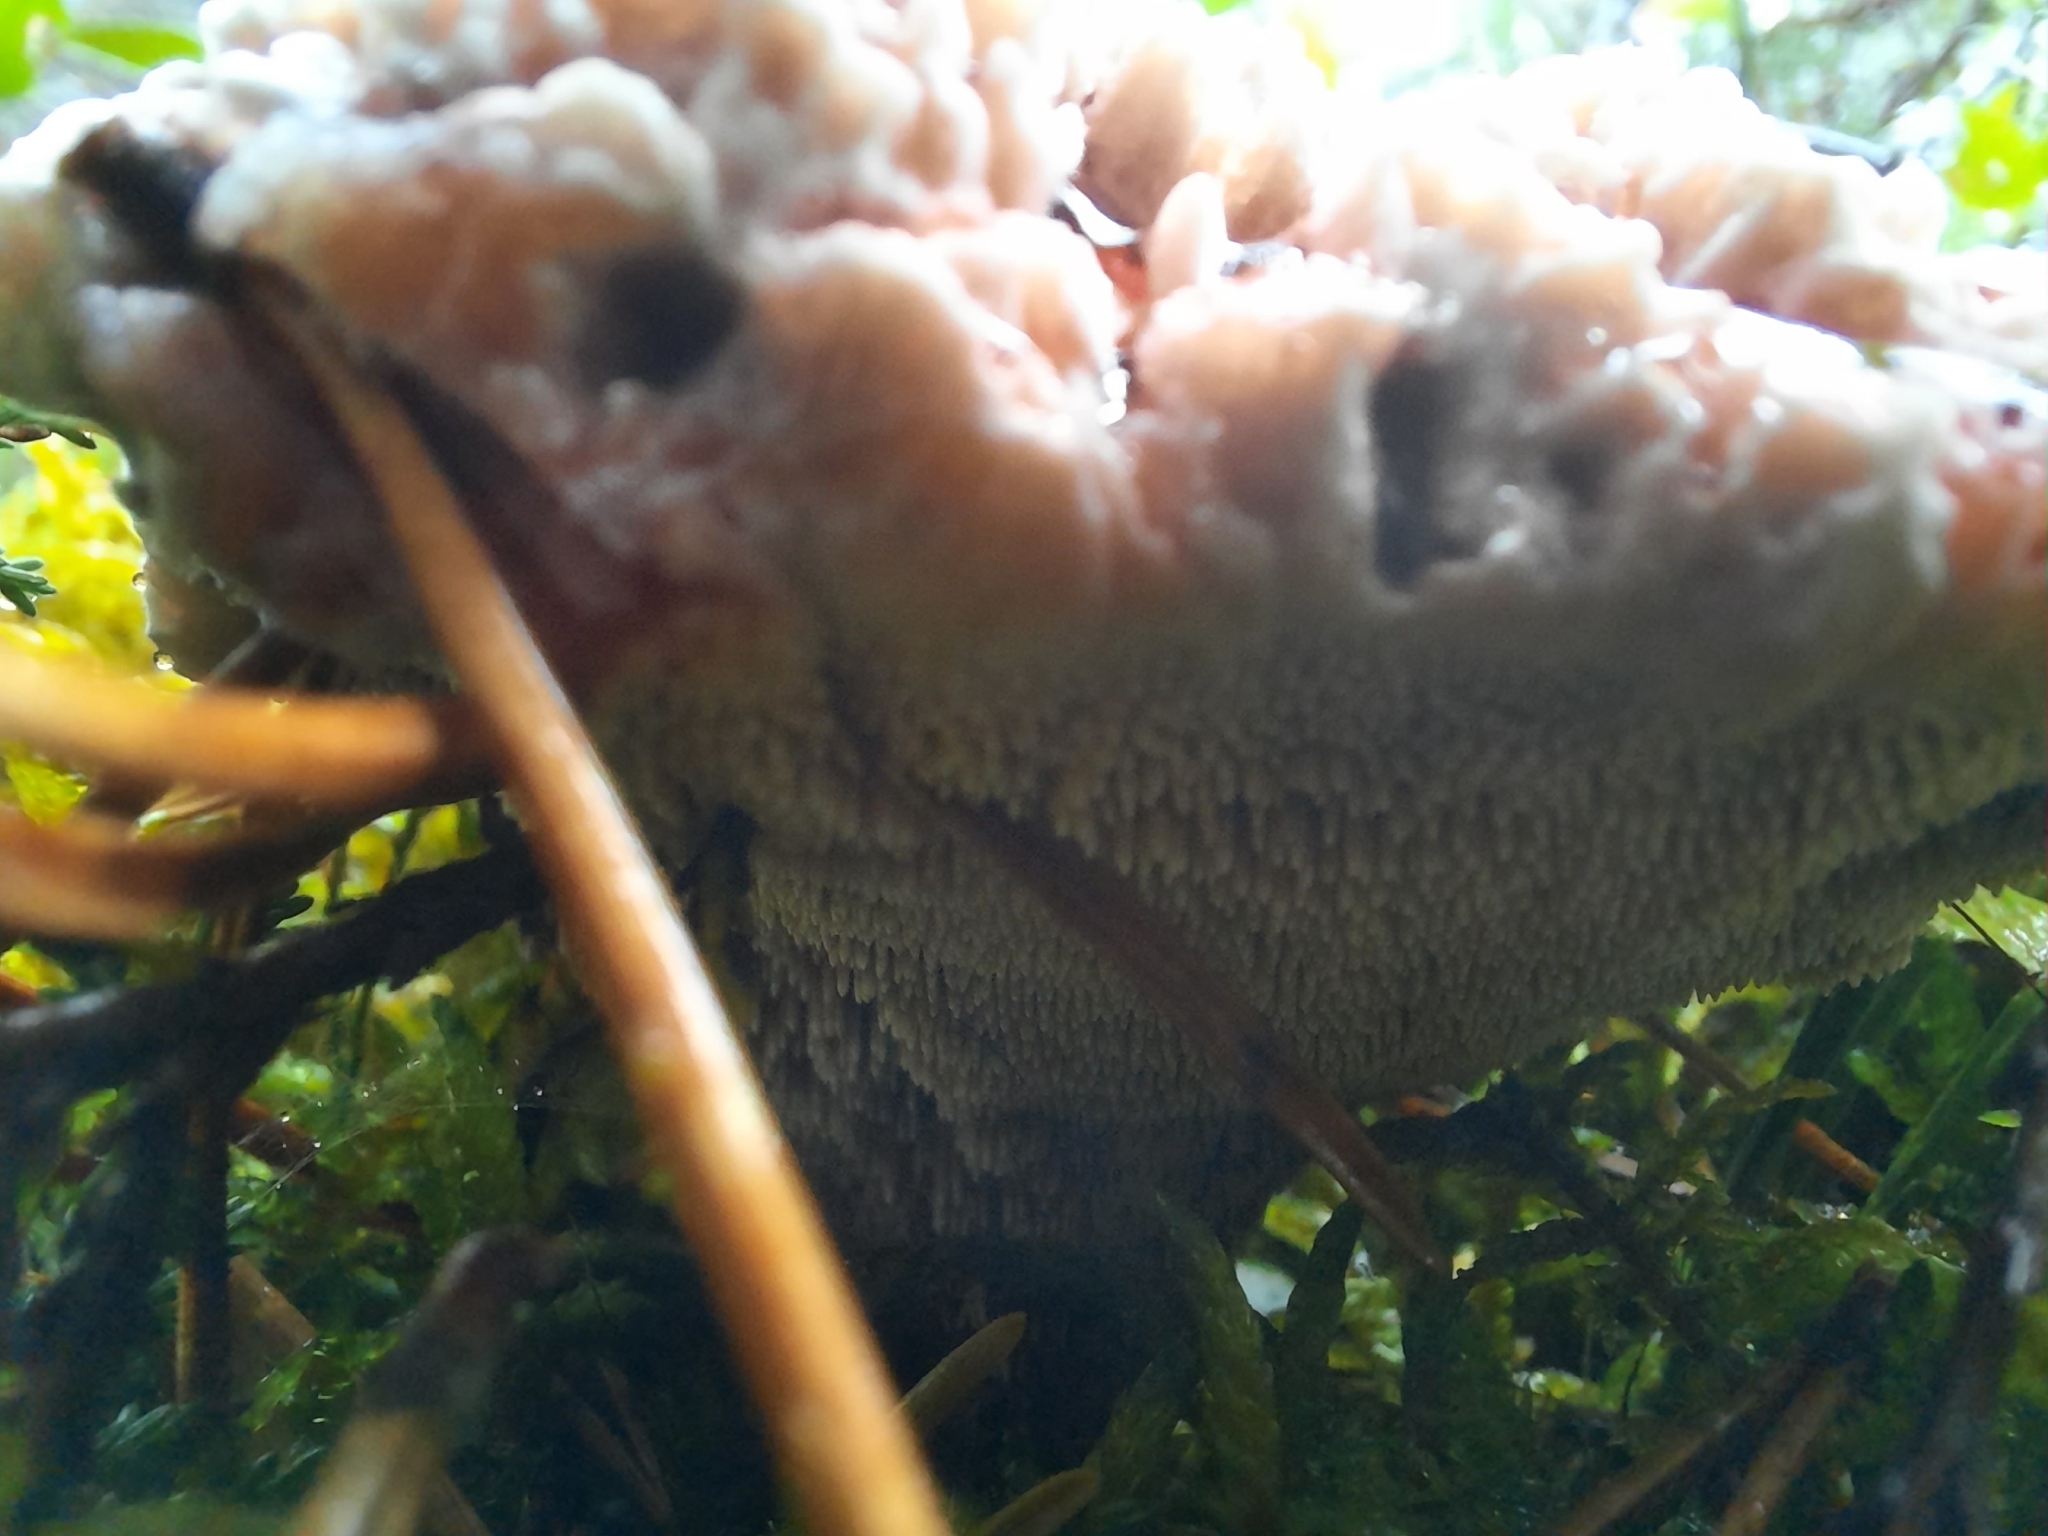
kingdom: Fungi
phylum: Basidiomycota
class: Agaricomycetes
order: Thelephorales
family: Bankeraceae
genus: Hydnellum
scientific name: Hydnellum peckii
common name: Devil's tooth
